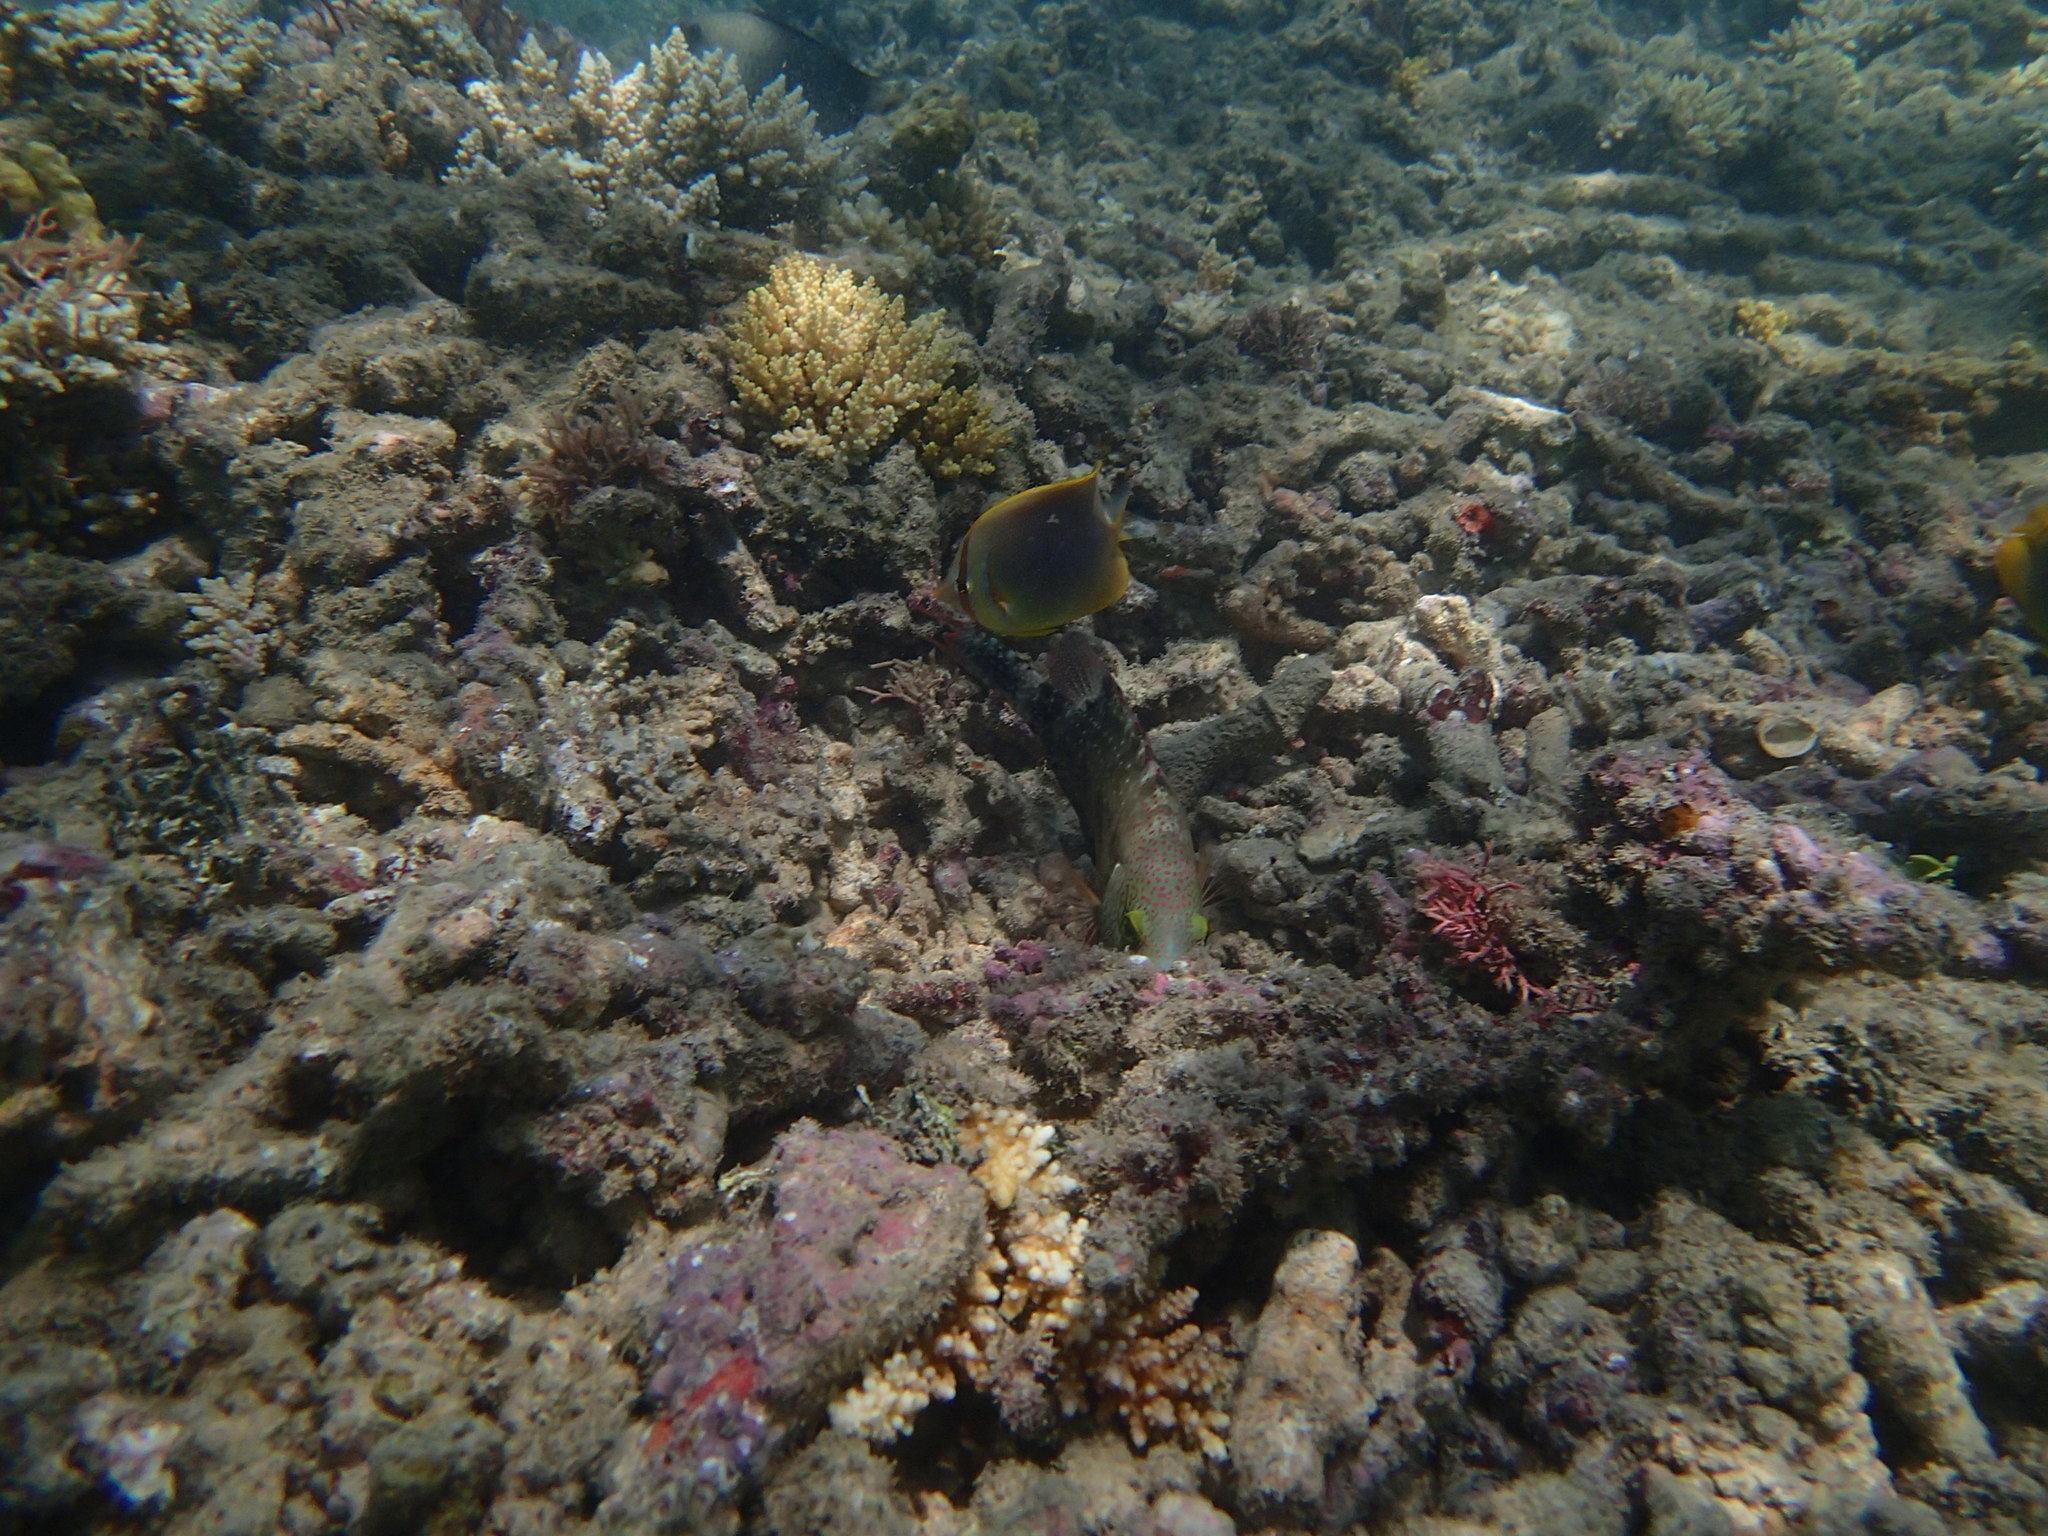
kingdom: Animalia
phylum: Chordata
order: Perciformes
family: Chaetodontidae
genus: Chaetodon
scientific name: Chaetodon aureofasciatus
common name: Golden butterflyfish
